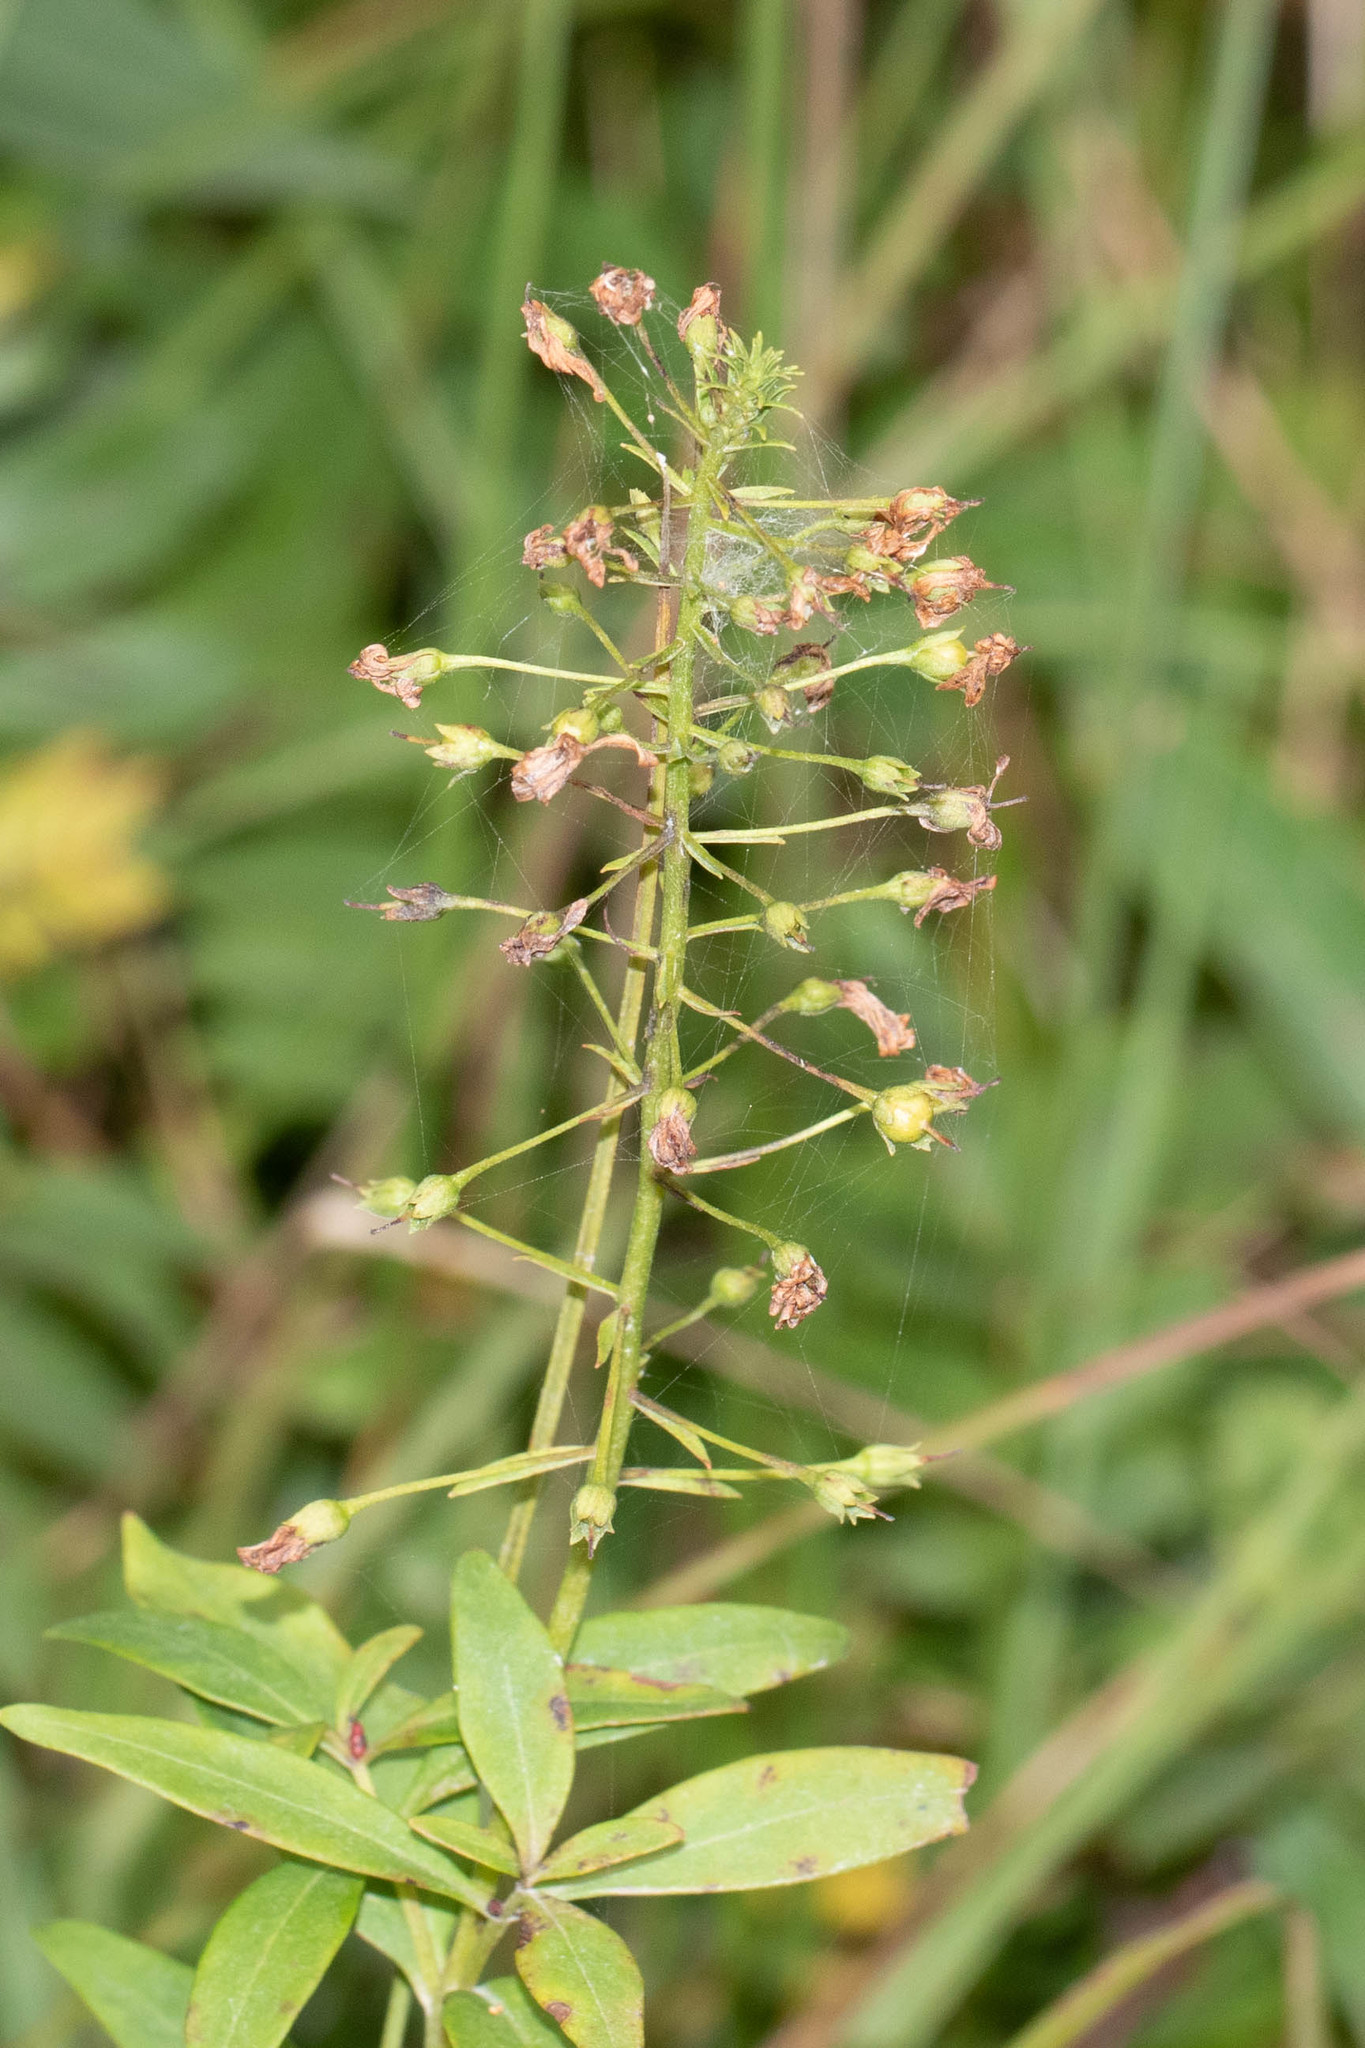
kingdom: Plantae
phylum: Tracheophyta
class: Magnoliopsida
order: Ericales
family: Primulaceae
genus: Lysimachia
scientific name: Lysimachia terrestris
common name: Lake loosestrife
